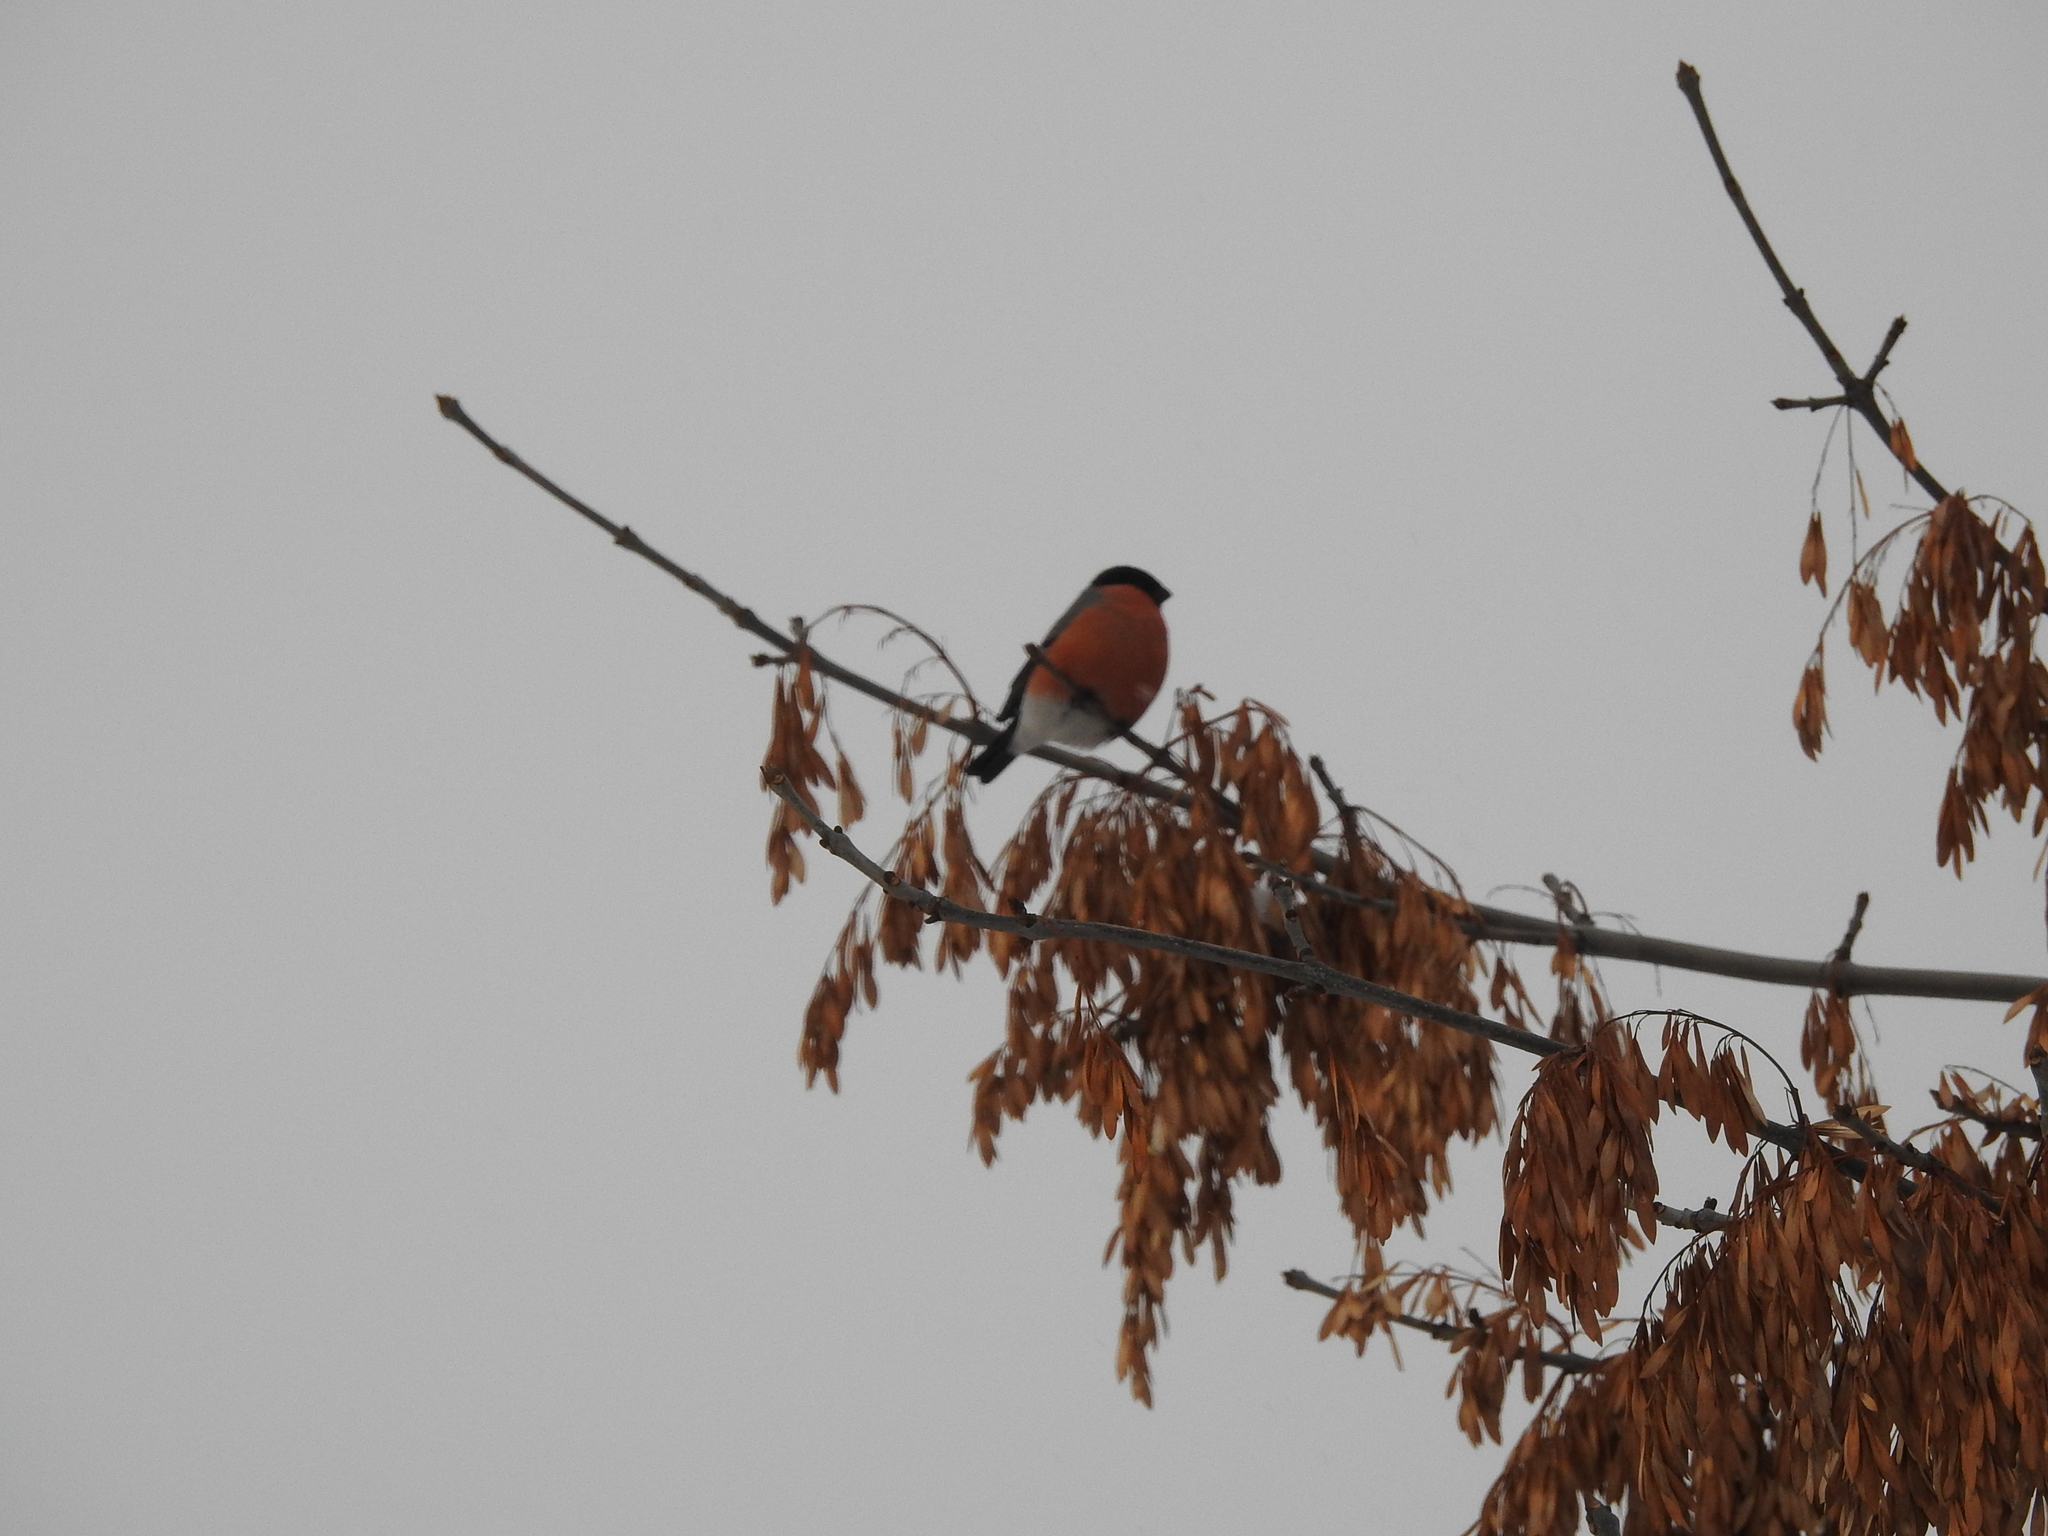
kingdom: Animalia
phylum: Chordata
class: Aves
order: Passeriformes
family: Fringillidae
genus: Pyrrhula
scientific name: Pyrrhula pyrrhula
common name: Eurasian bullfinch
